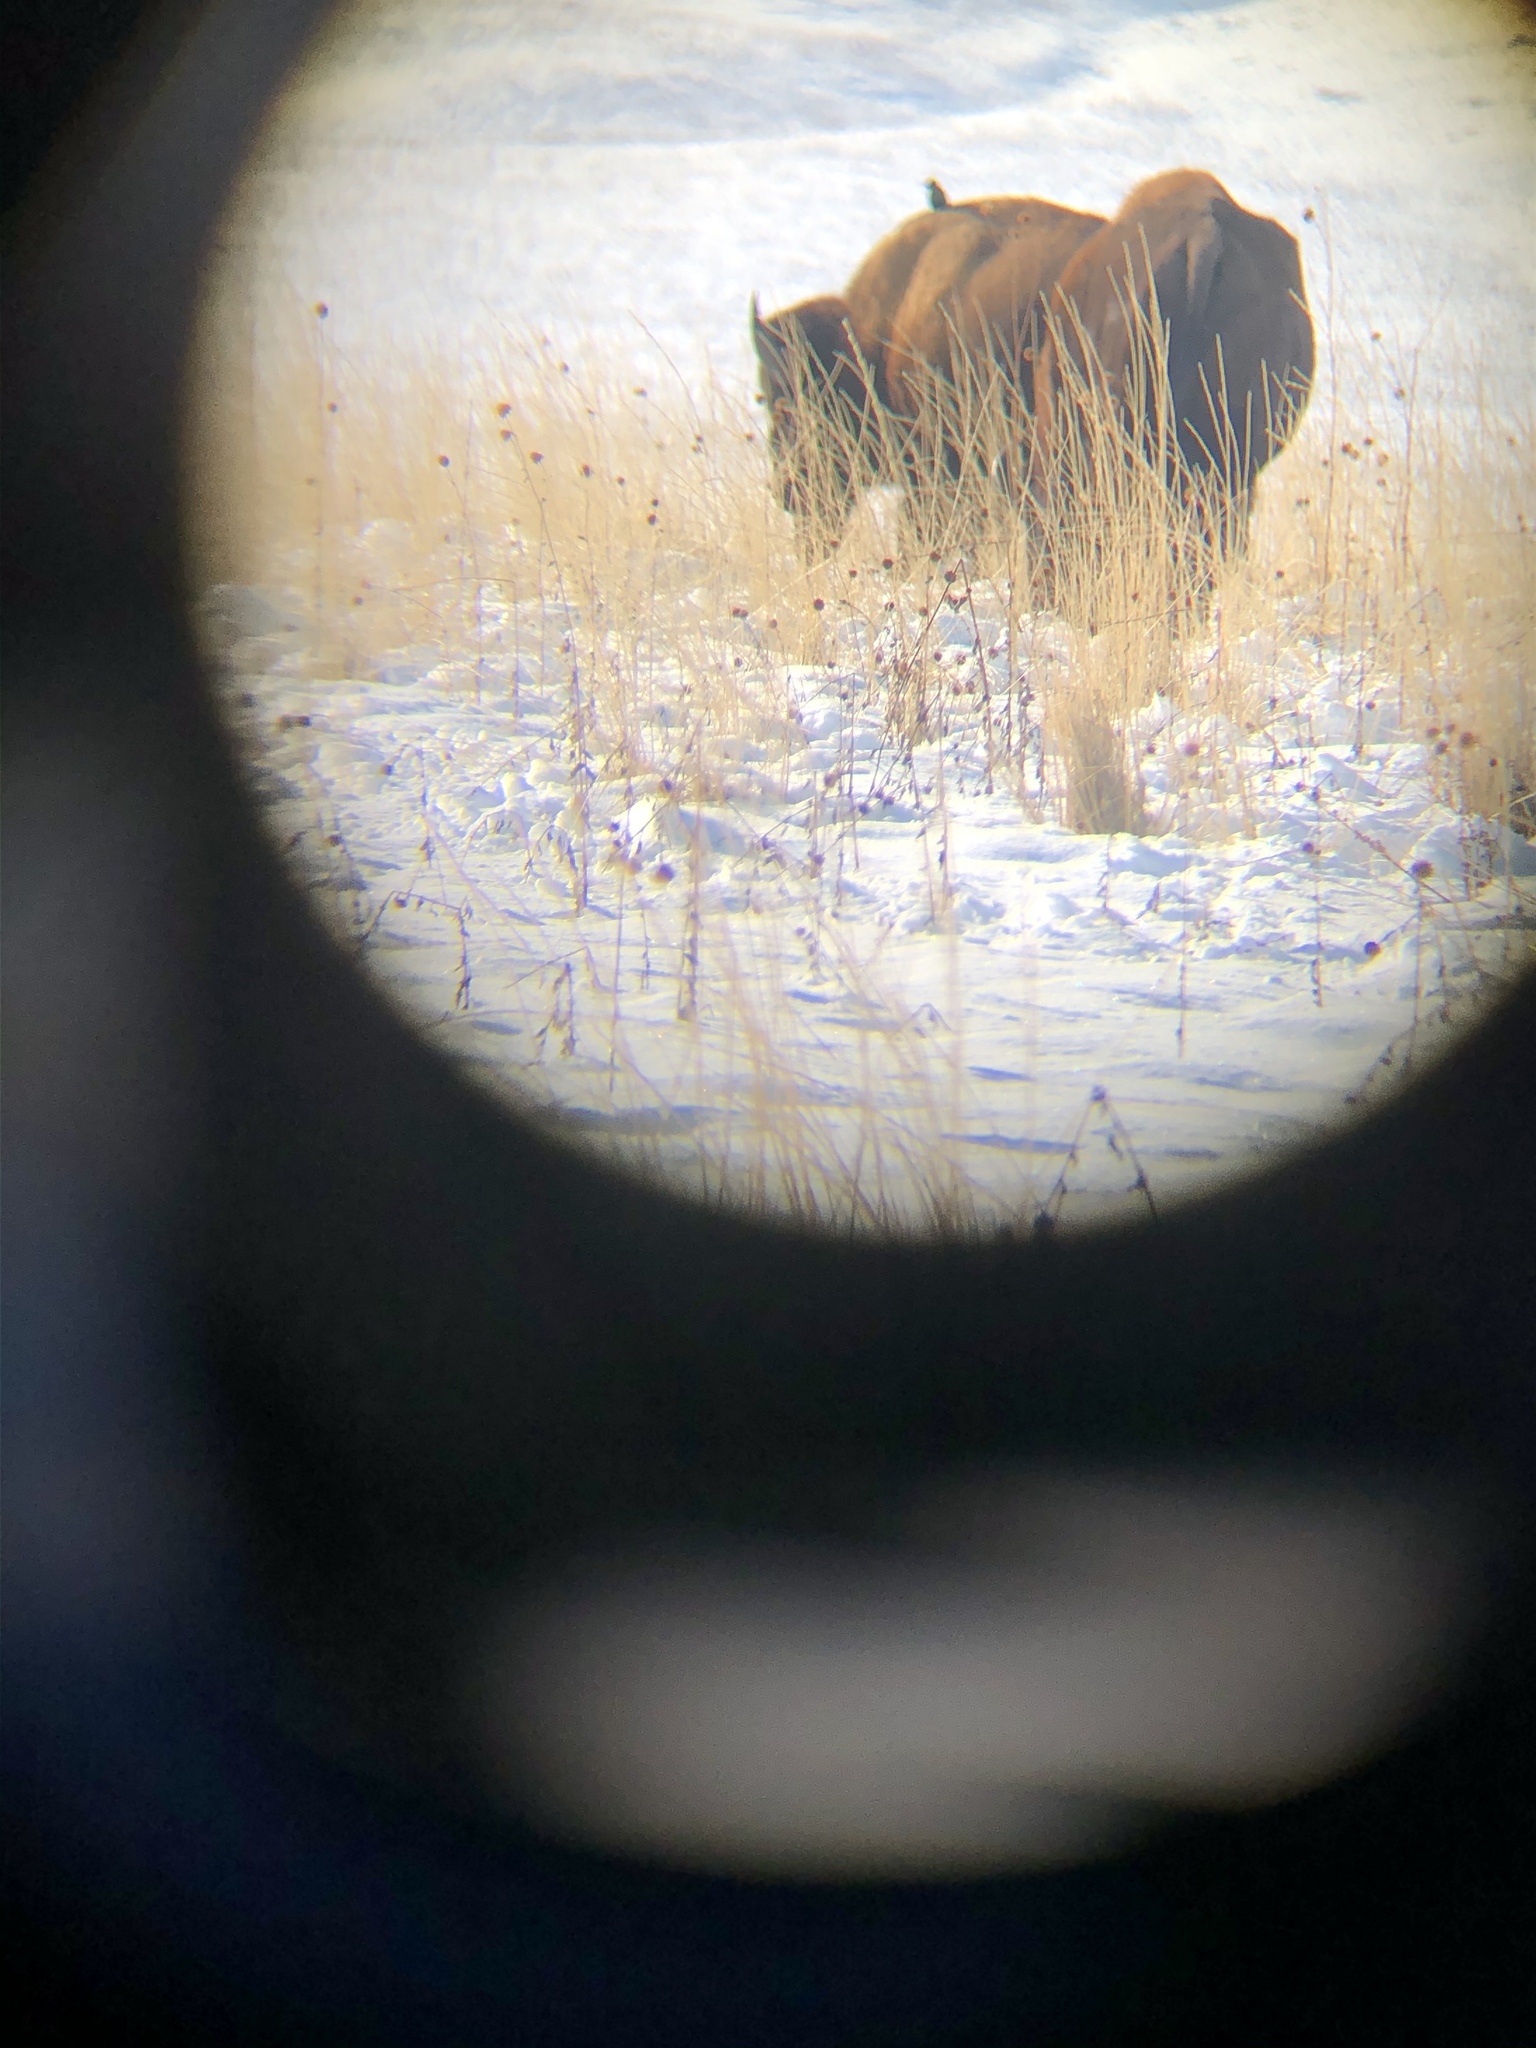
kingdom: Animalia
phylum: Chordata
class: Mammalia
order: Artiodactyla
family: Bovidae
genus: Bison
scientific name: Bison bison
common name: American bison
